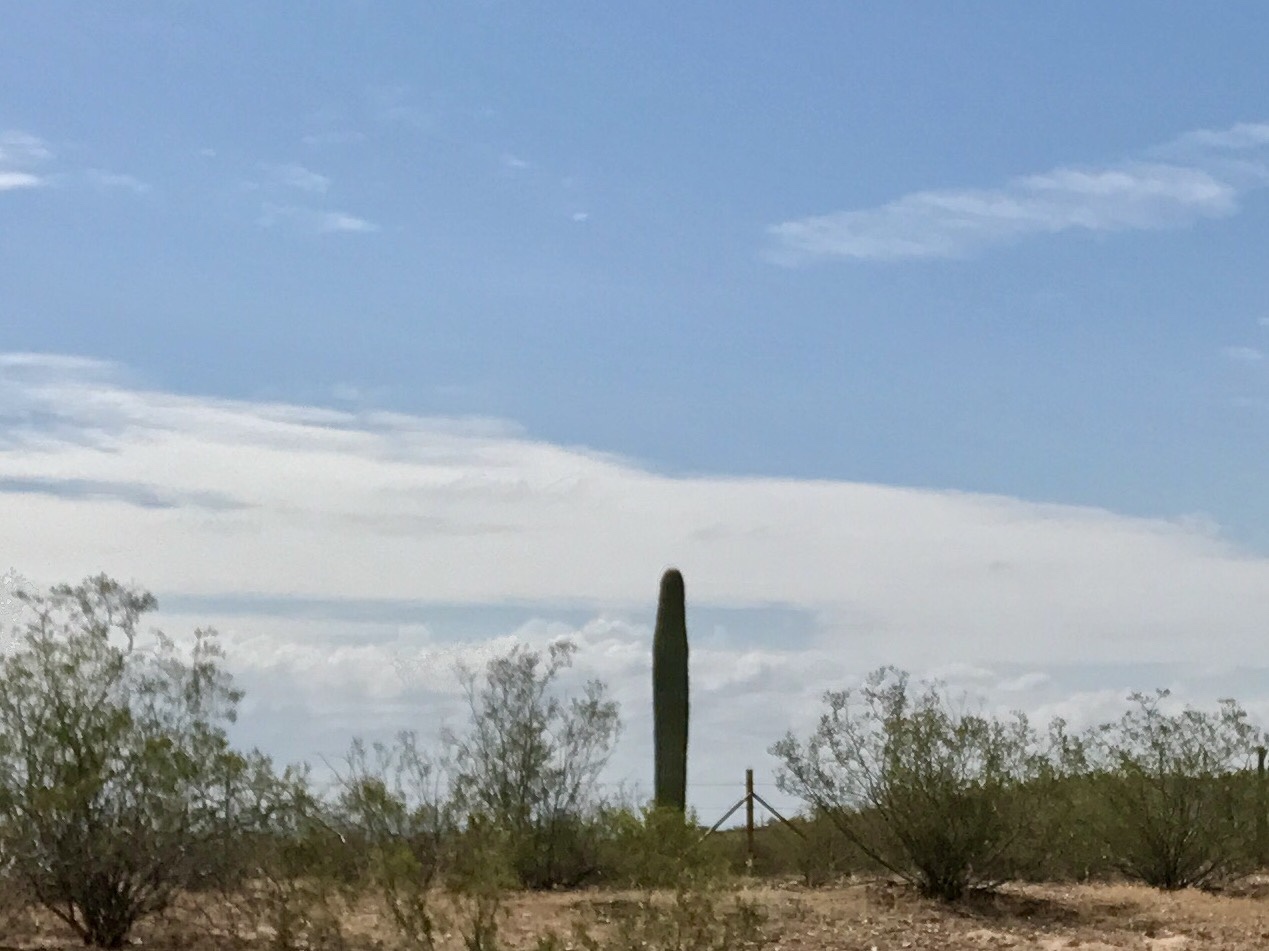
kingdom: Plantae
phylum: Tracheophyta
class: Magnoliopsida
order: Caryophyllales
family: Cactaceae
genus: Carnegiea
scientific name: Carnegiea gigantea
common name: Saguaro
